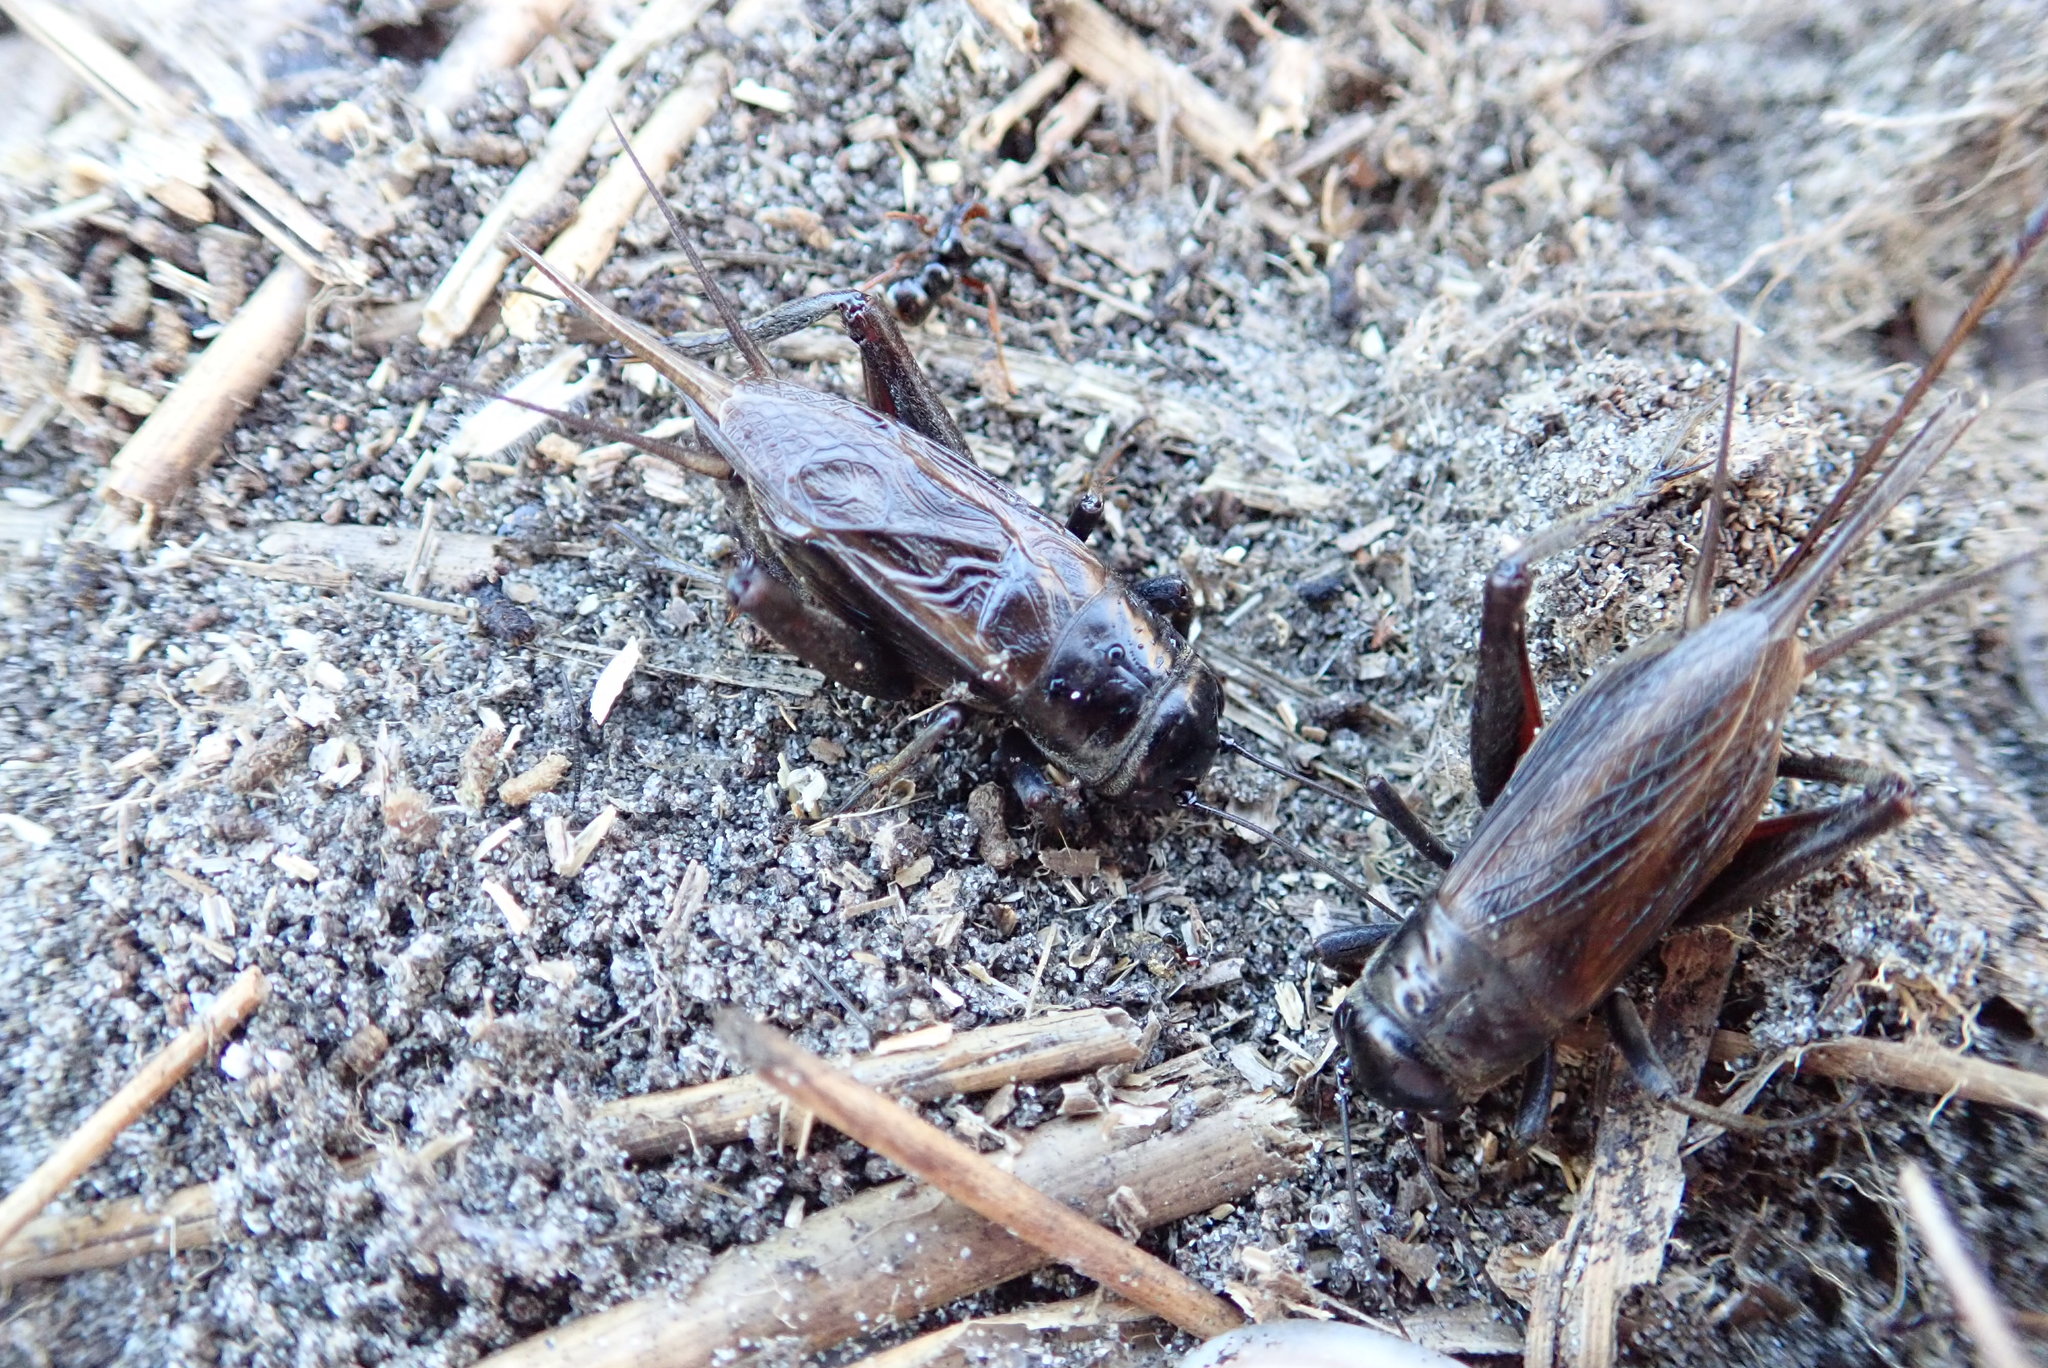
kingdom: Animalia
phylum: Arthropoda
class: Insecta
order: Orthoptera
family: Gryllidae
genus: Teleogryllus
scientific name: Teleogryllus commodus
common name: Black field cricket
